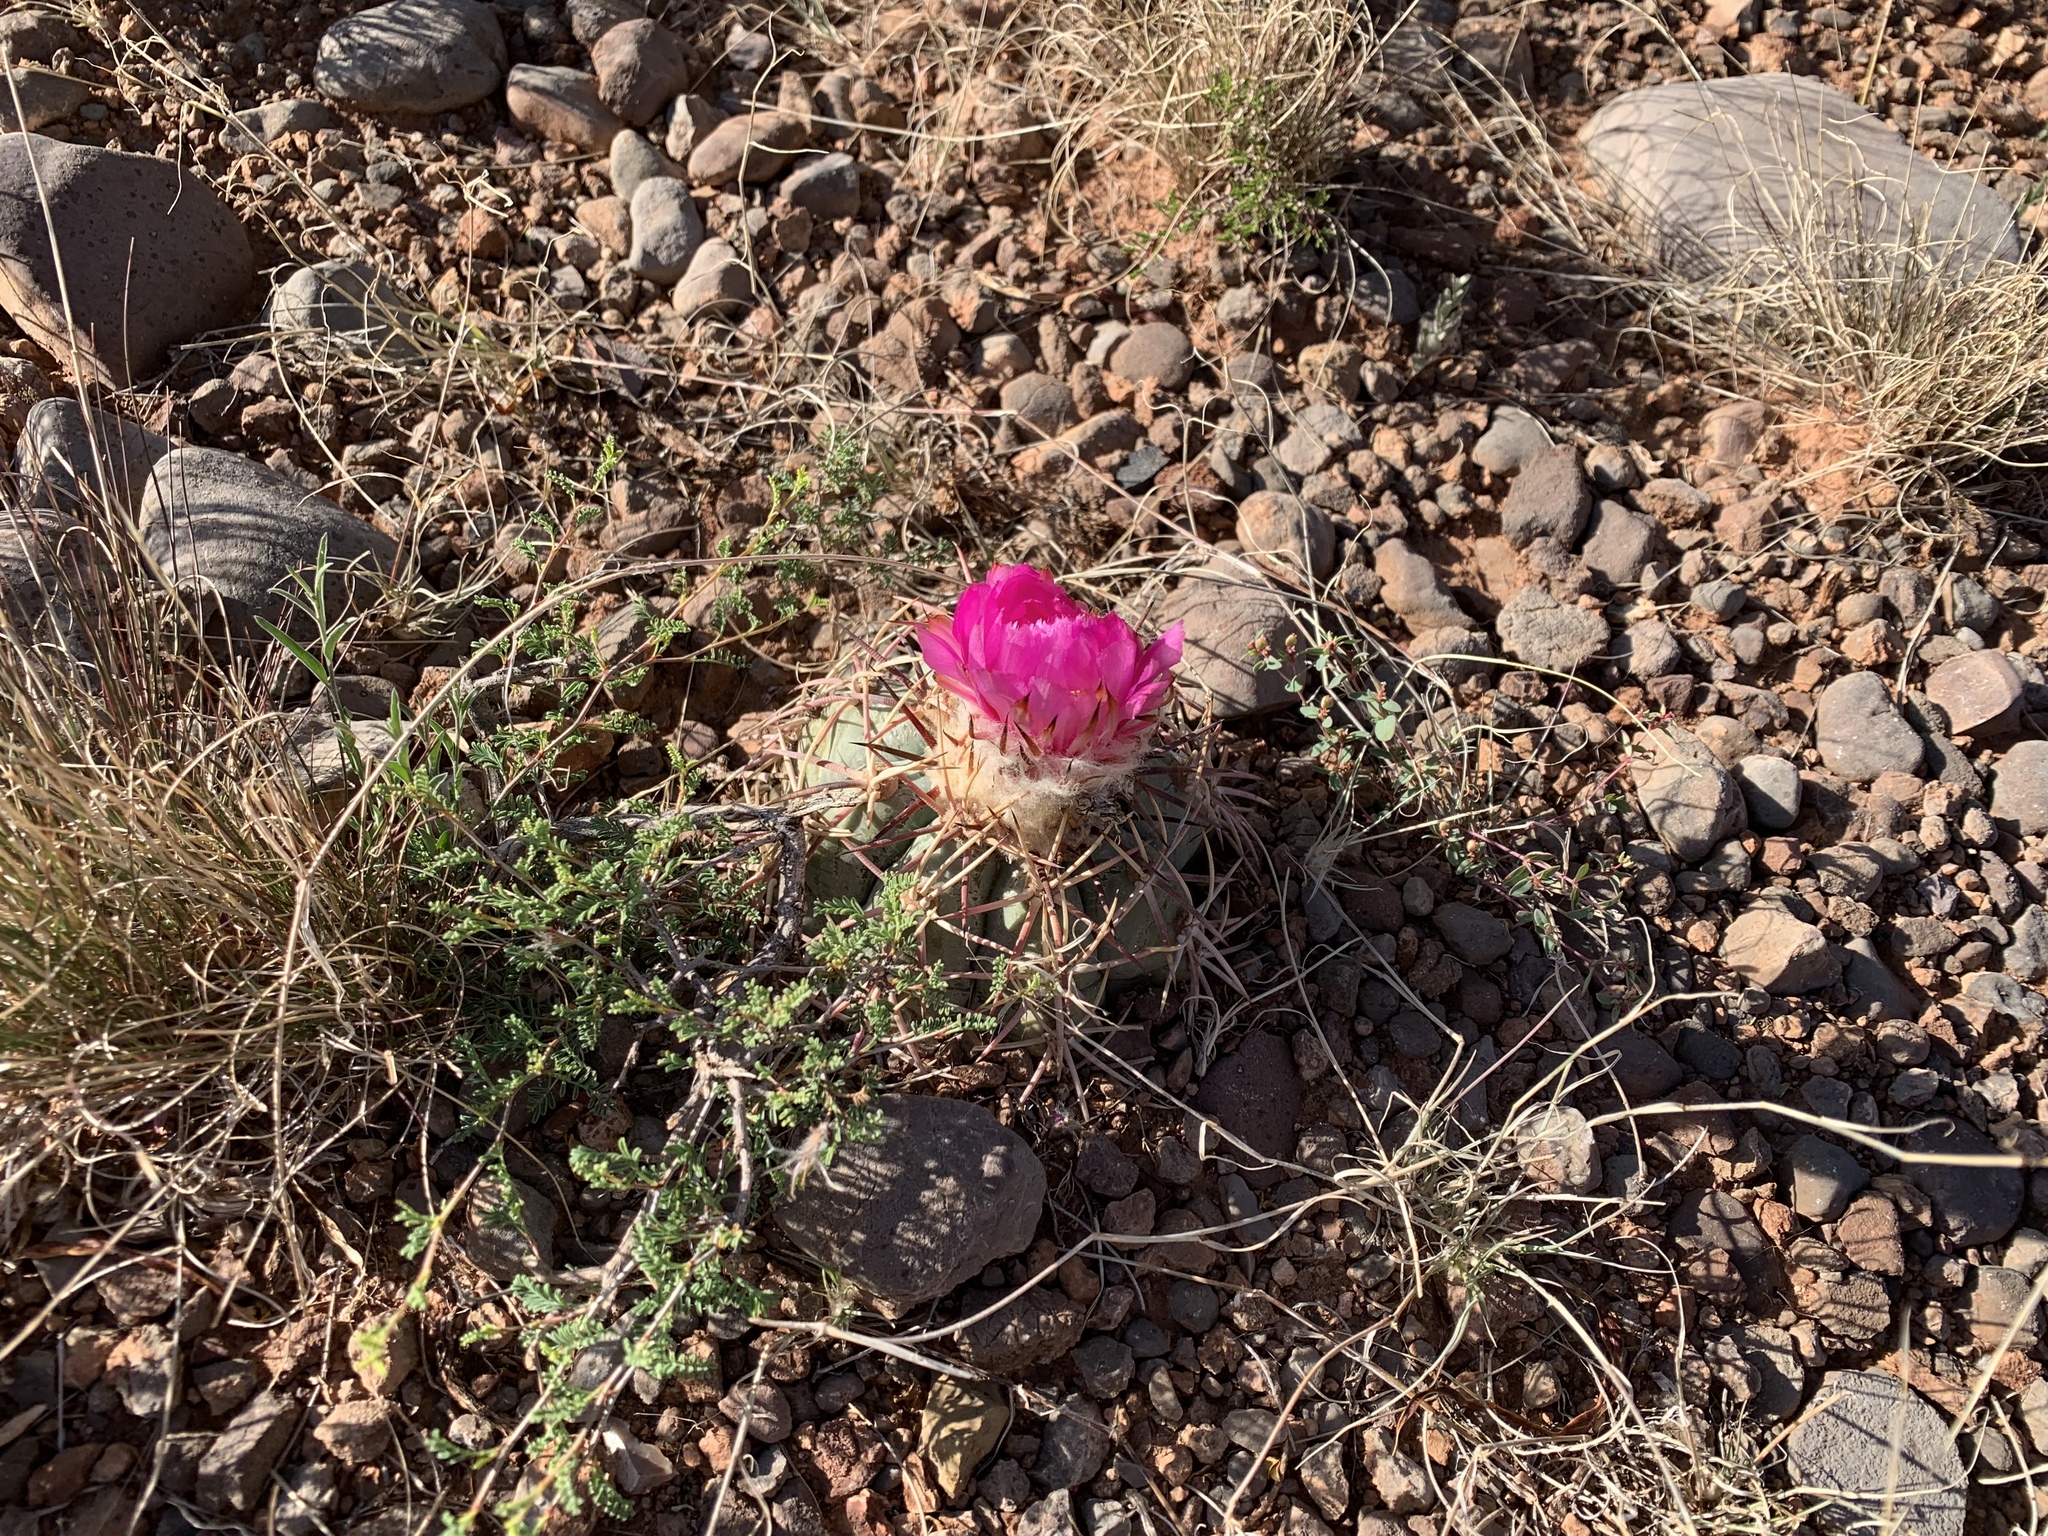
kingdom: Plantae
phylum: Tracheophyta
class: Magnoliopsida
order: Caryophyllales
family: Cactaceae
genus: Echinocactus
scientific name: Echinocactus horizonthalonius
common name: Devilshead
